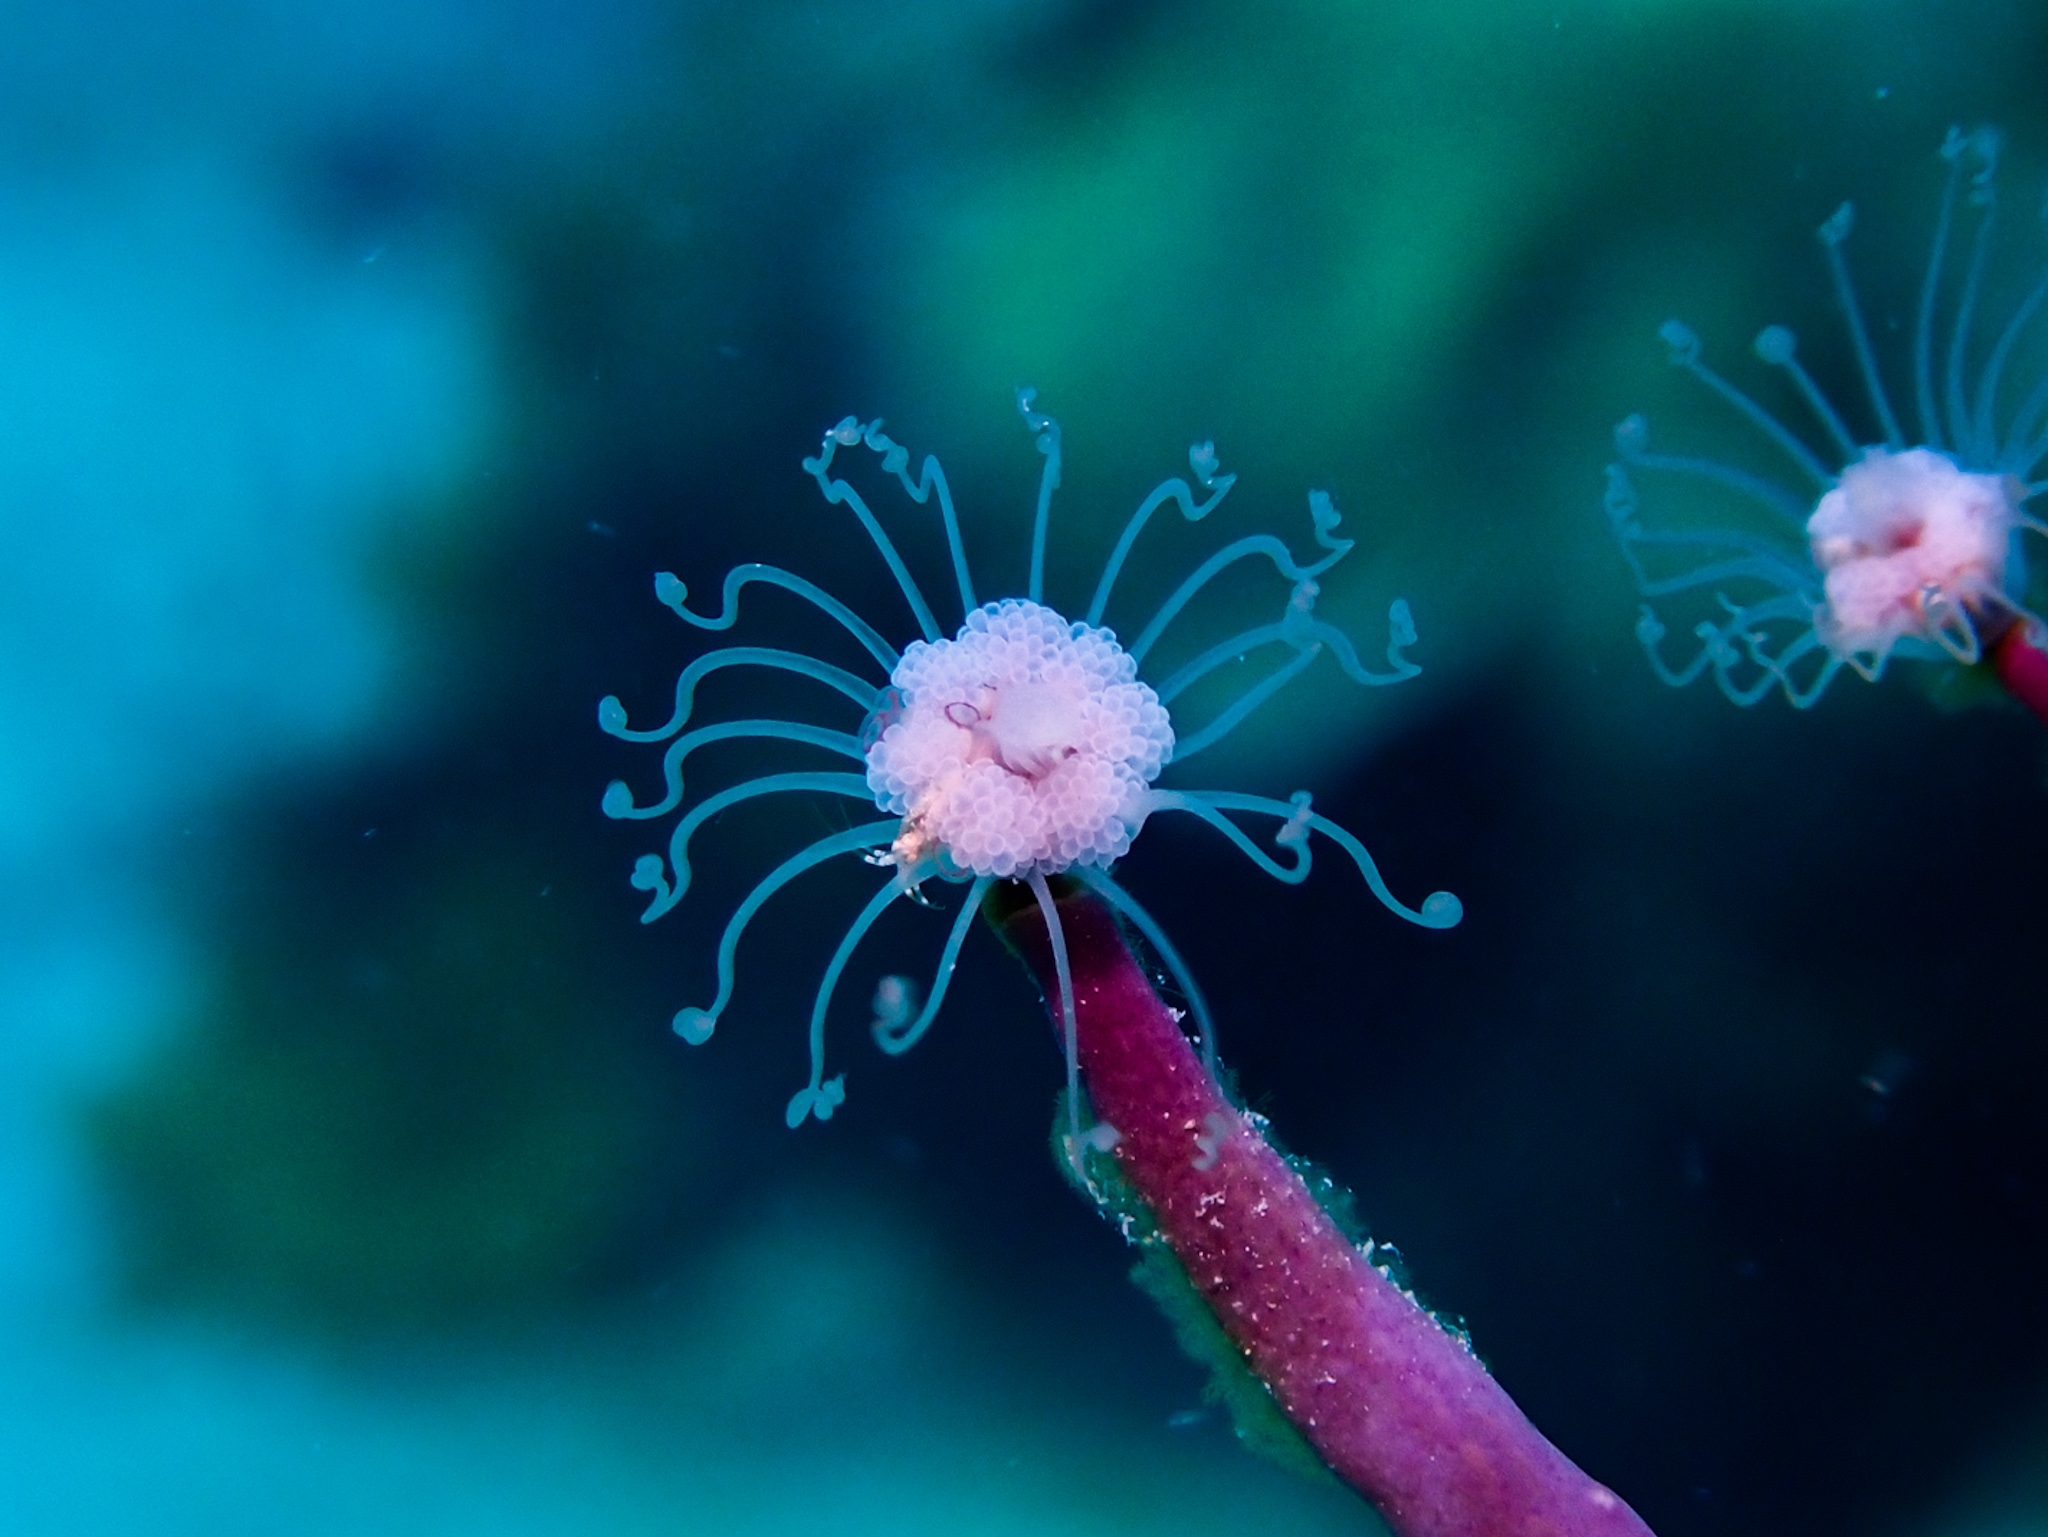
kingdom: Animalia
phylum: Cnidaria
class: Hydrozoa
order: Anthoathecata
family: Tubulariidae
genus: Ralpharia
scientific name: Ralpharia gorgoniae
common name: Solitary gorgonian hydroid
